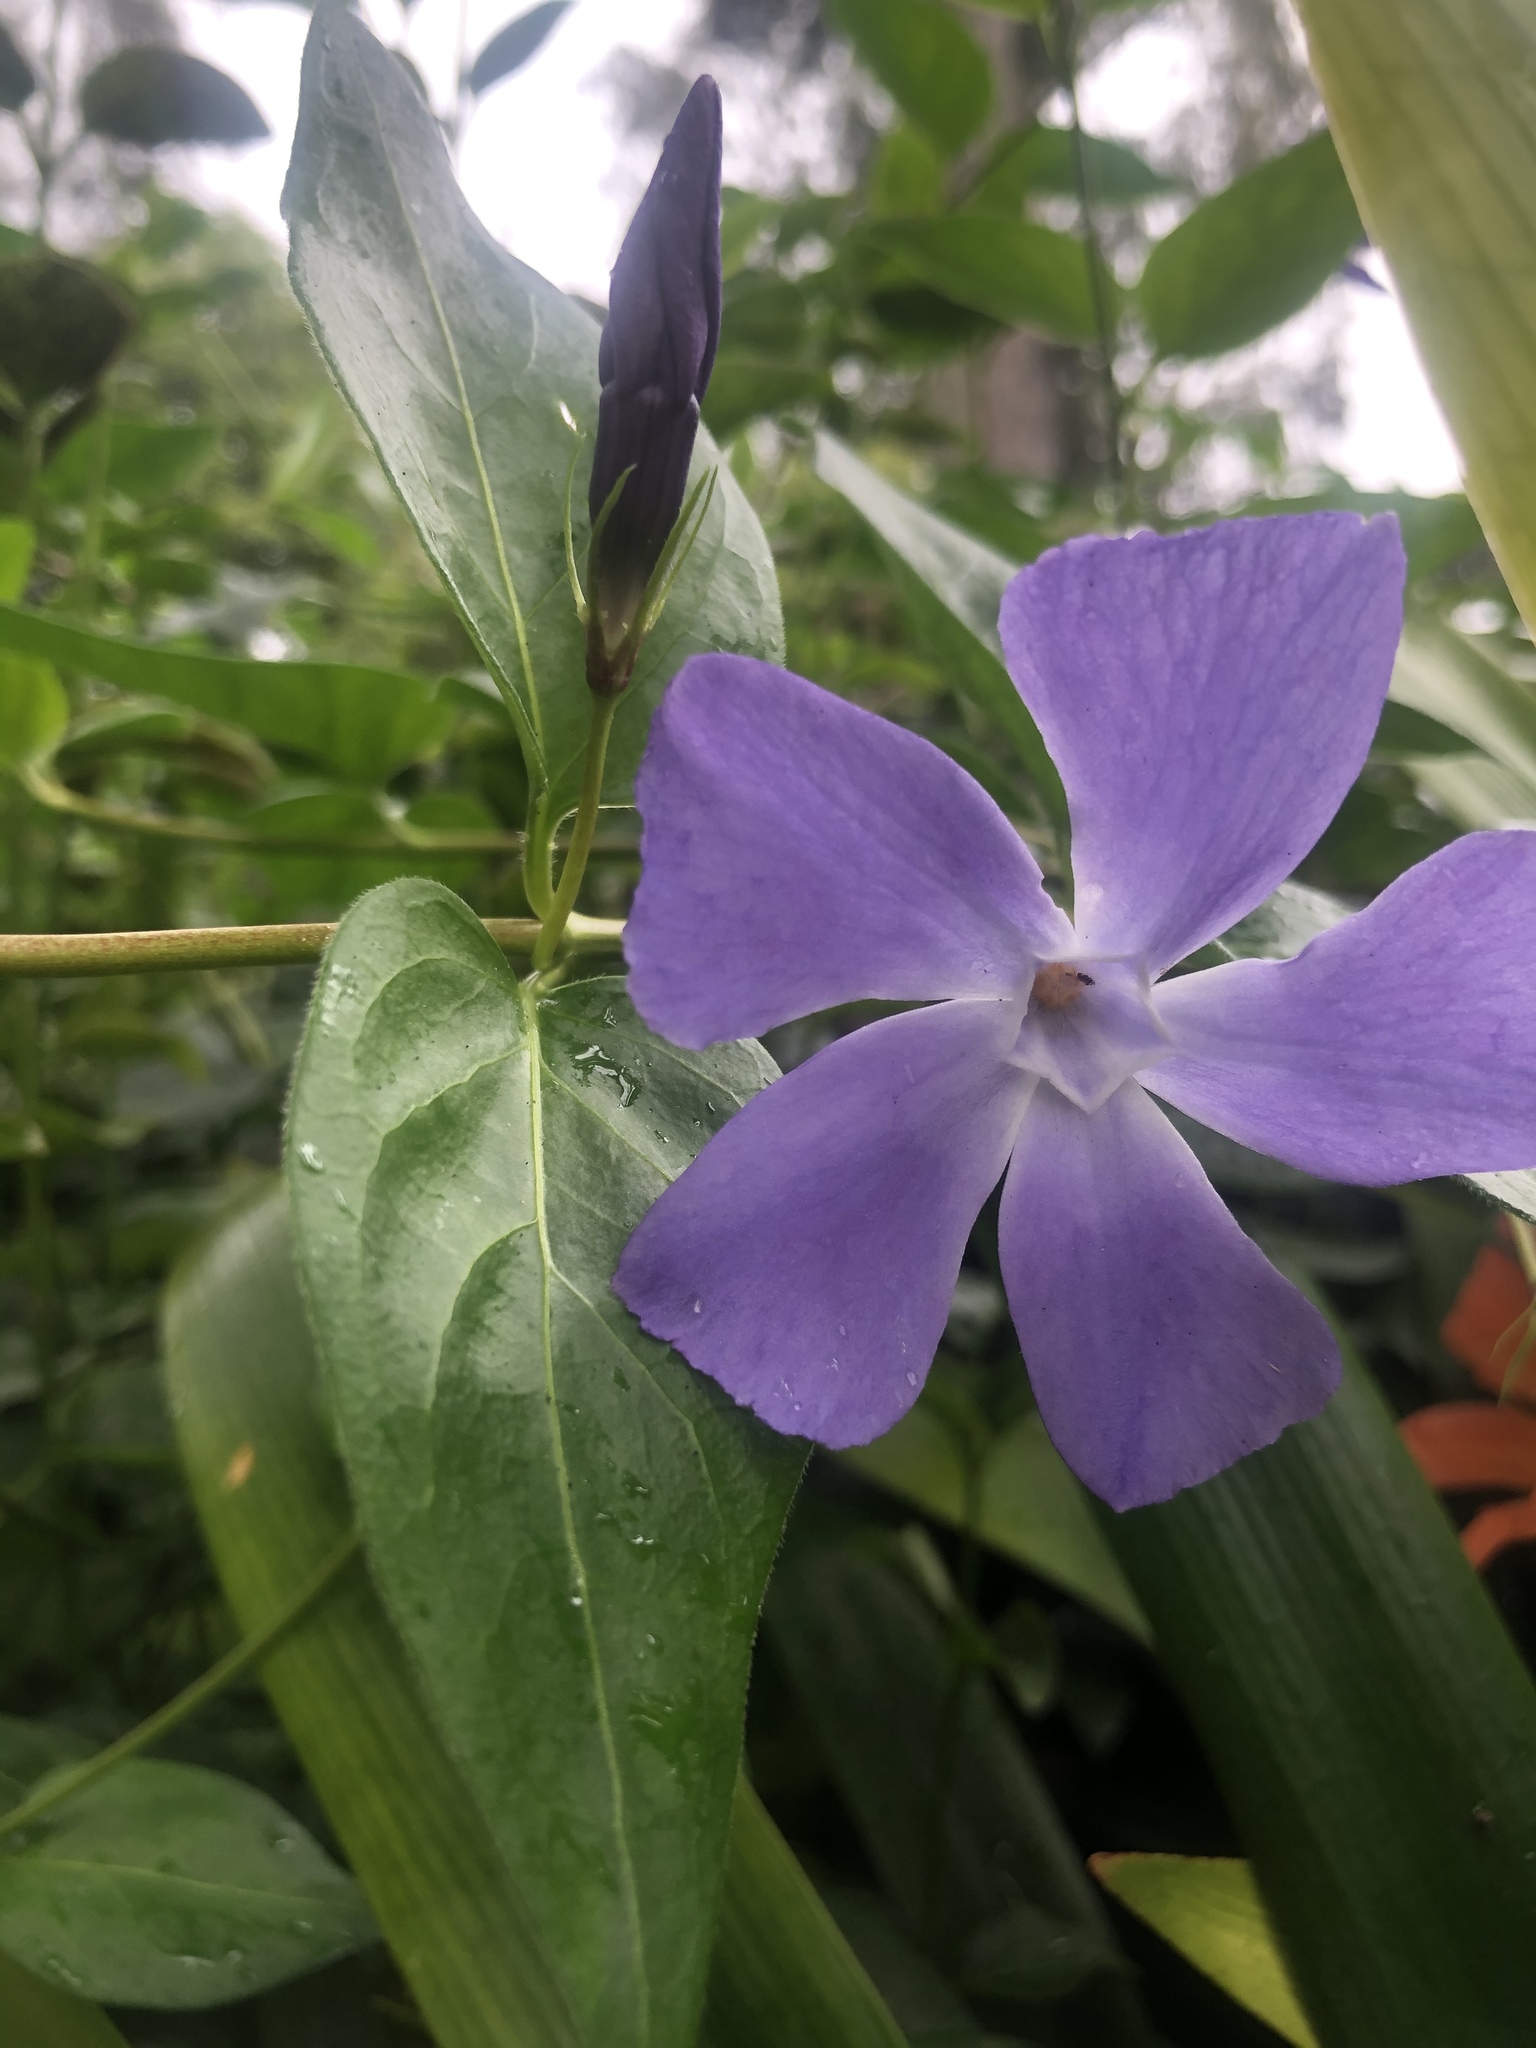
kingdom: Plantae
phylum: Tracheophyta
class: Magnoliopsida
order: Gentianales
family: Apocynaceae
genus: Vinca
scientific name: Vinca major
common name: Greater periwinkle
